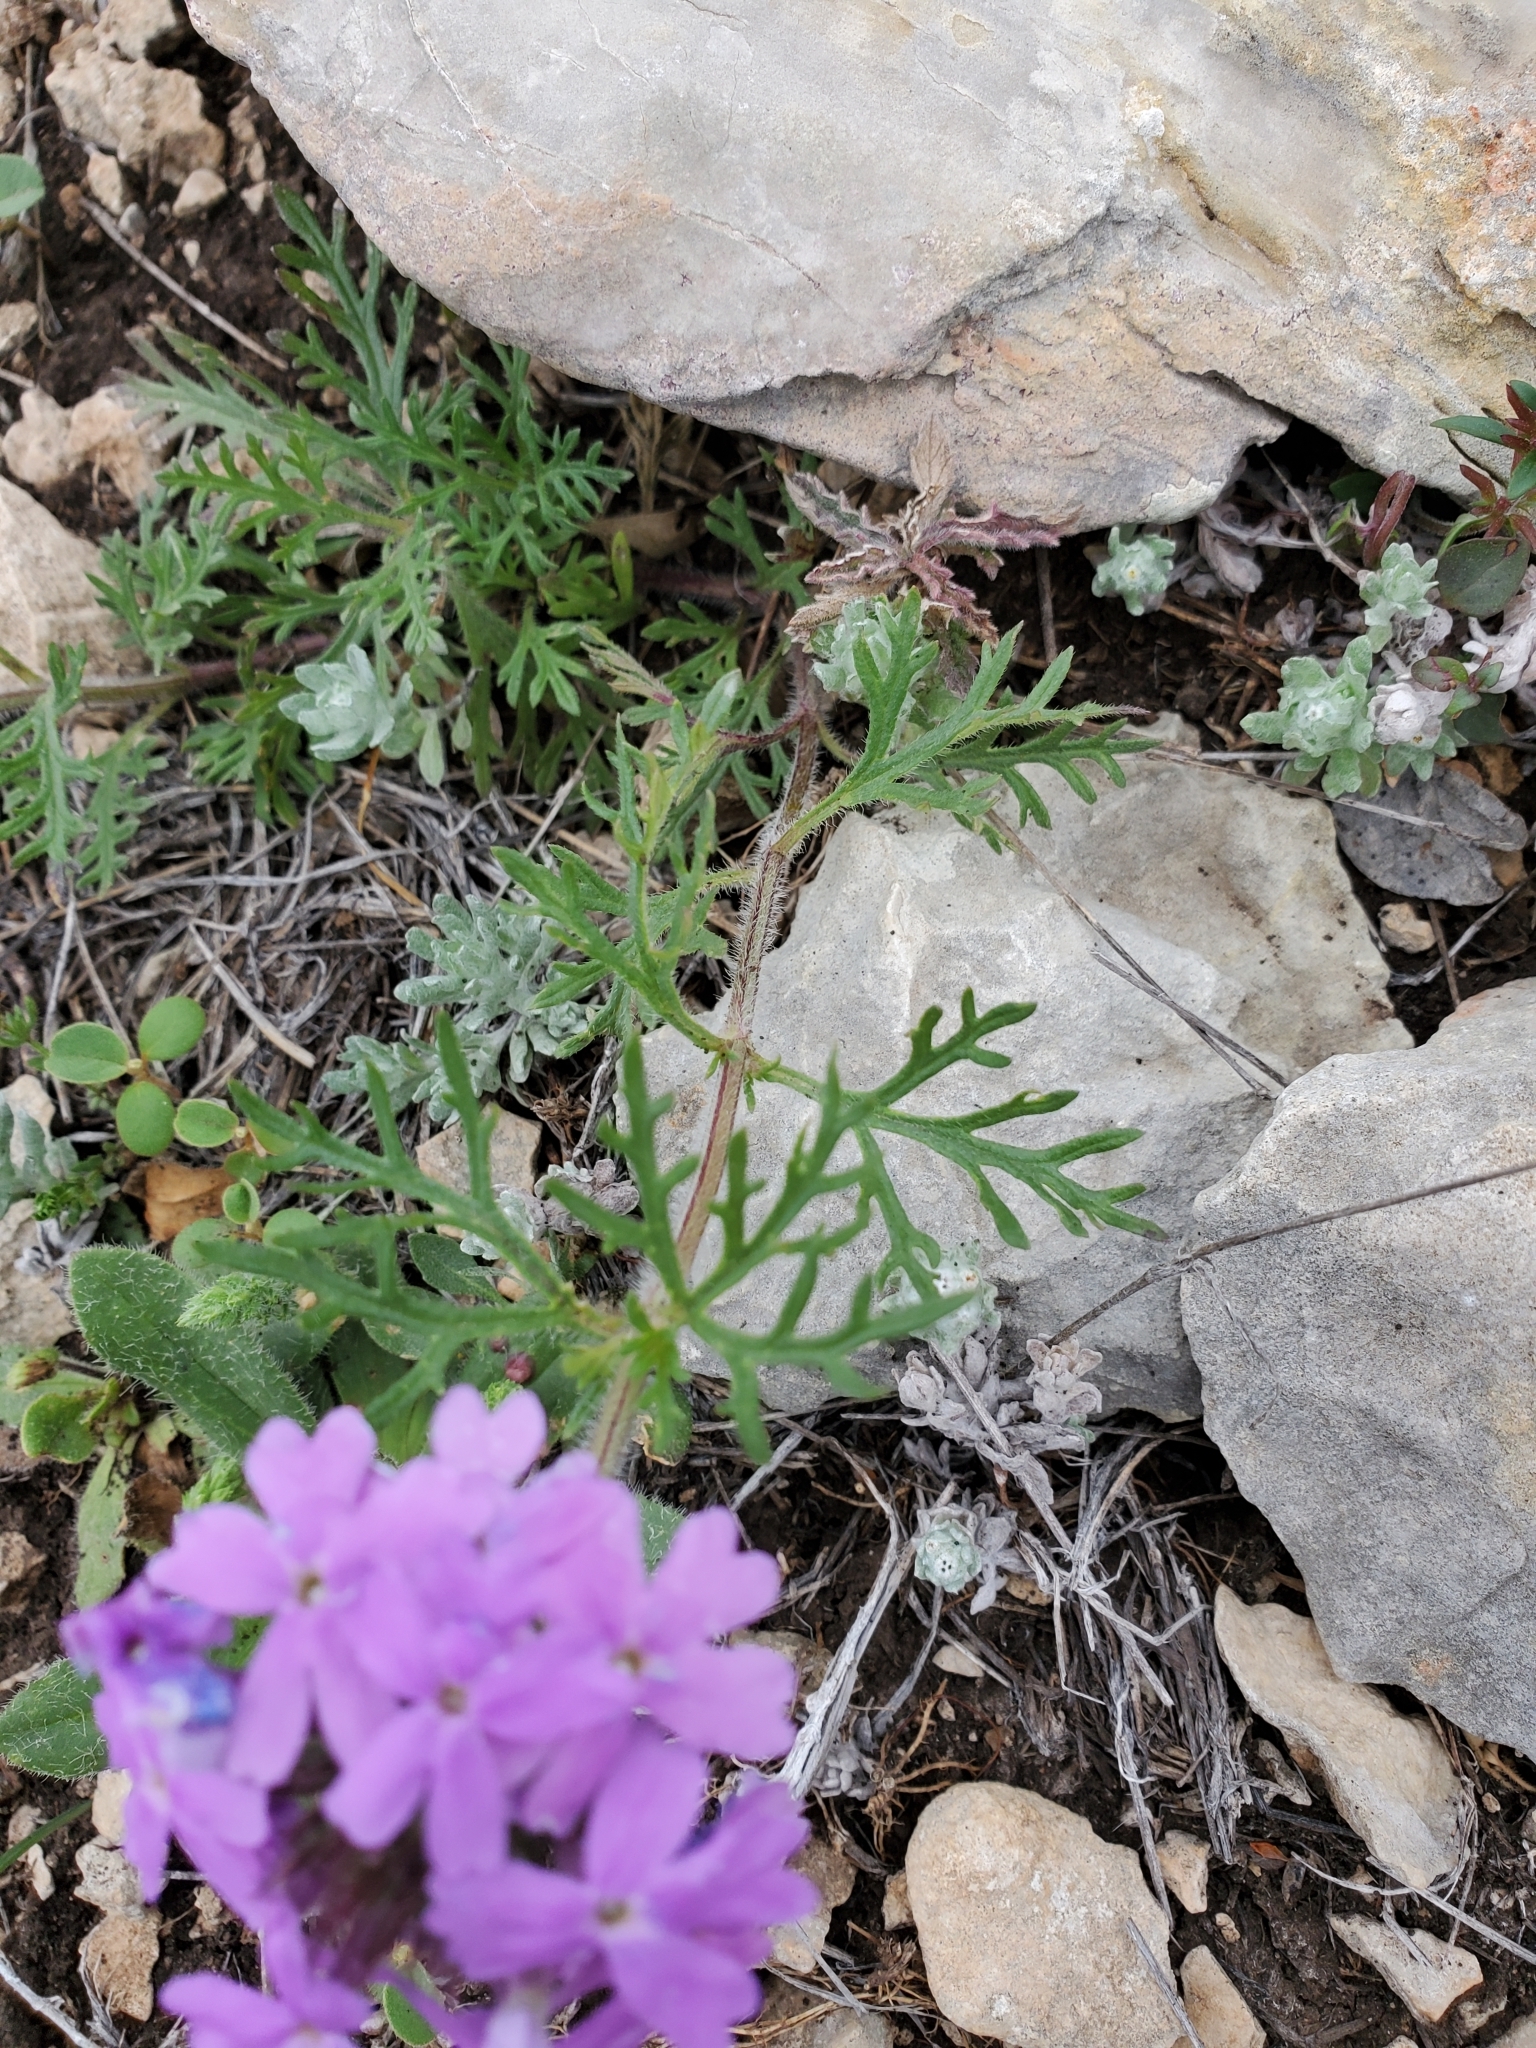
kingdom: Plantae
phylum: Tracheophyta
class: Magnoliopsida
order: Lamiales
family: Verbenaceae
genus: Verbena
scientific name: Verbena bipinnatifida
